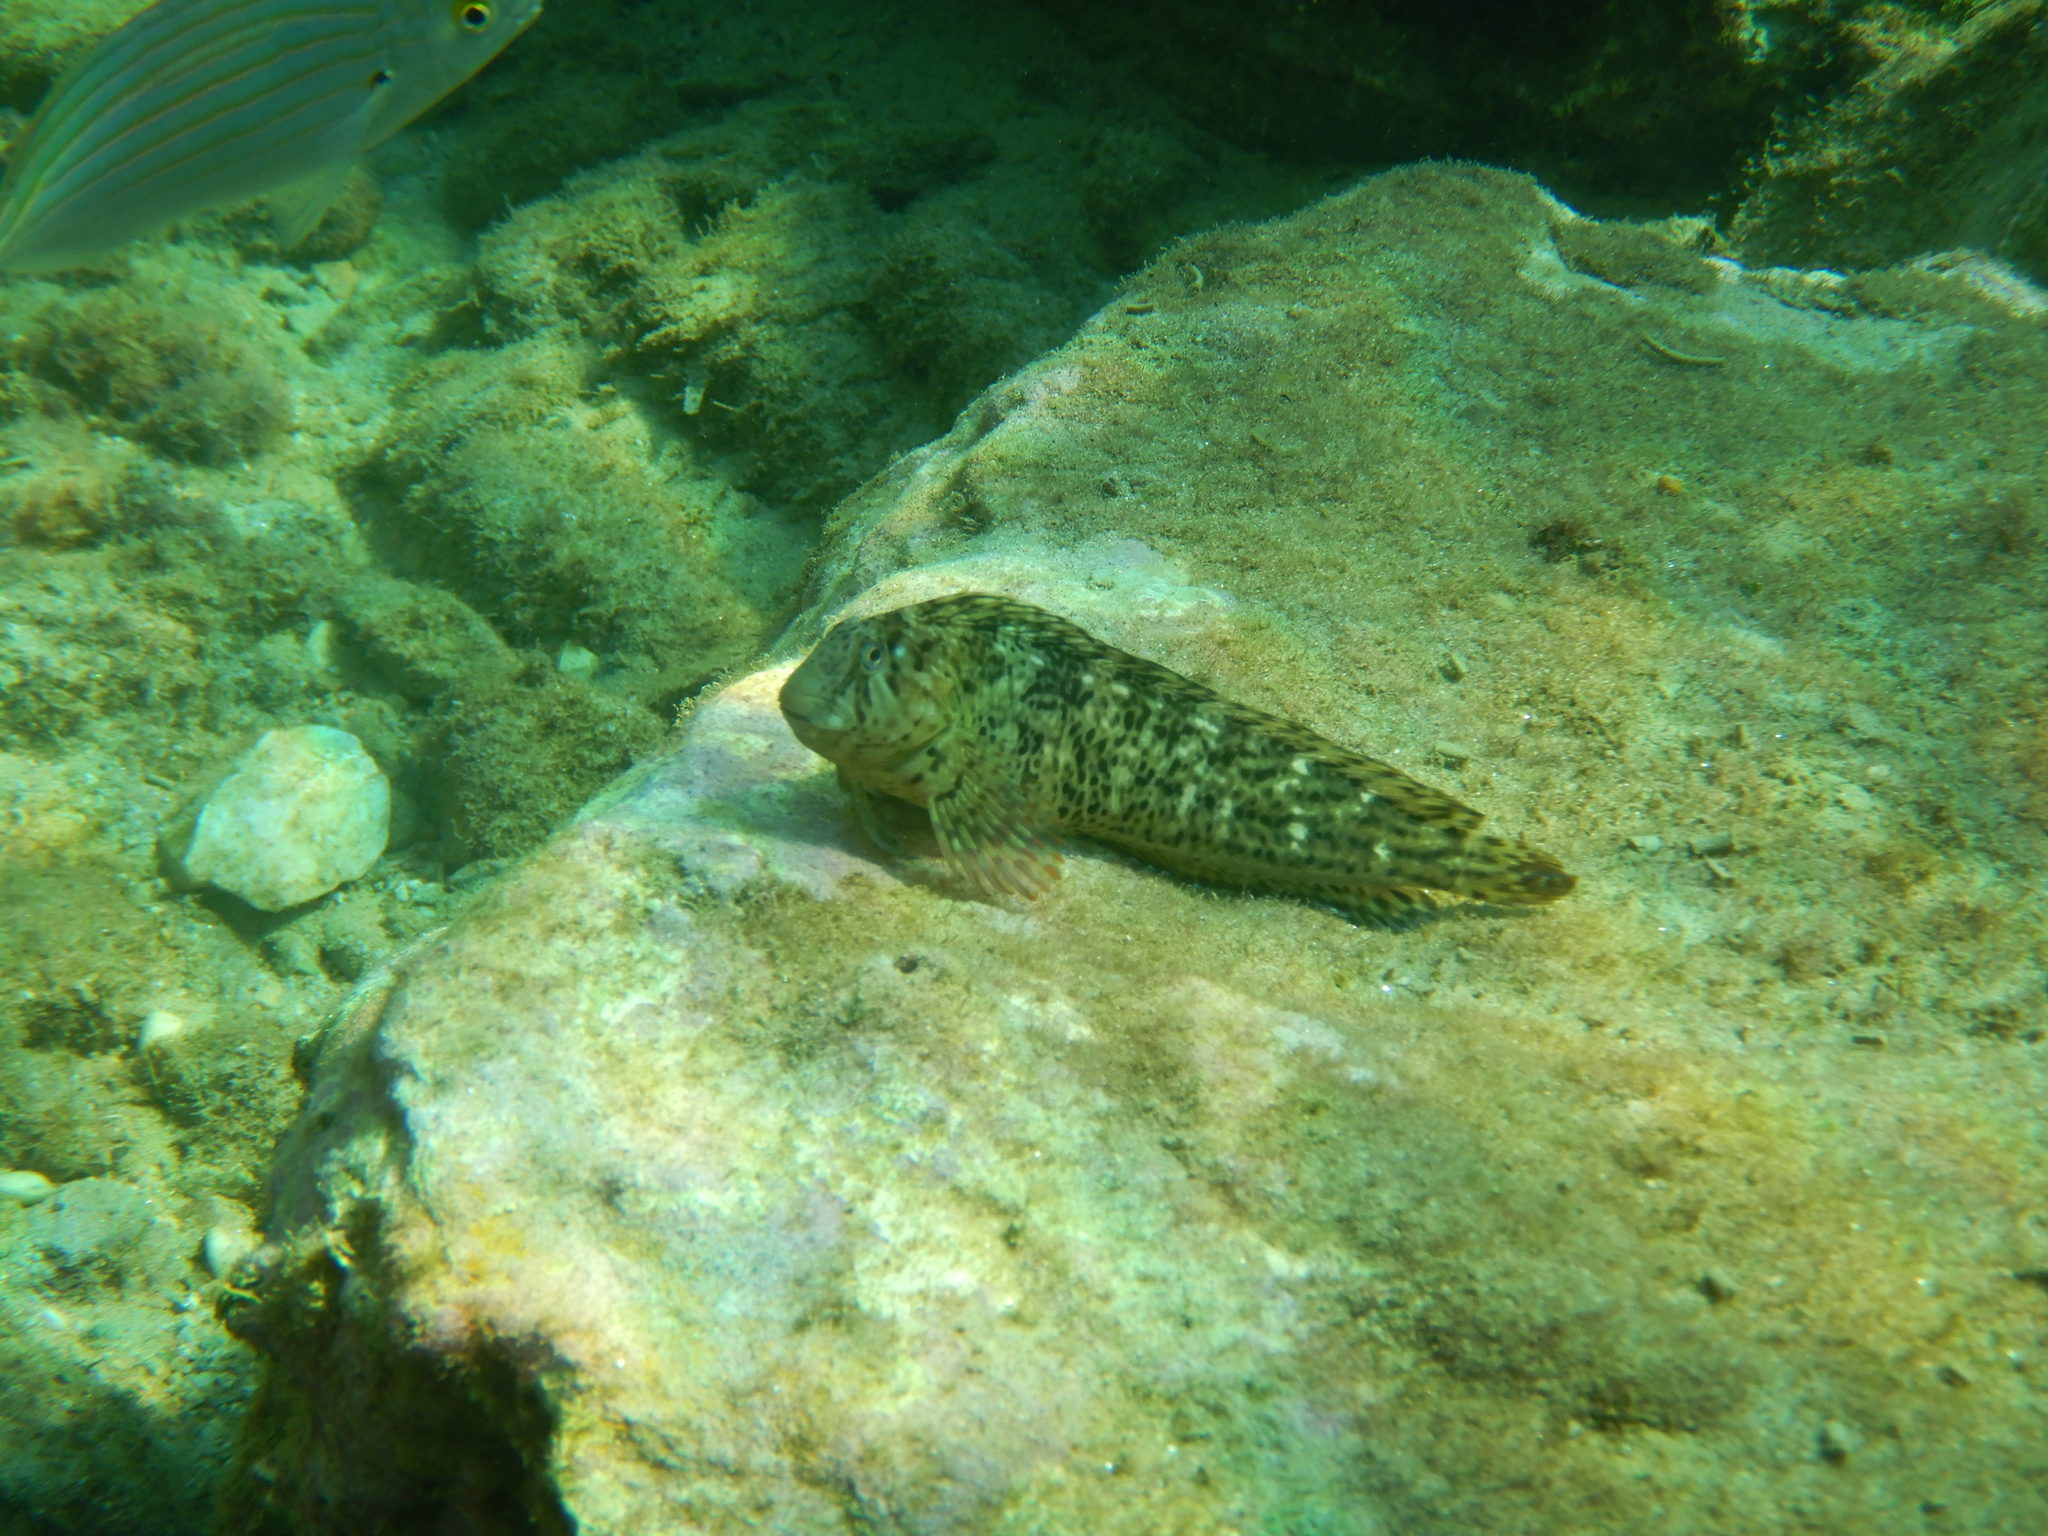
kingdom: Animalia
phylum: Chordata
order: Perciformes
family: Blenniidae
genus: Parablennius
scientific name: Parablennius sanguinolentus
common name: Black sea blenny
